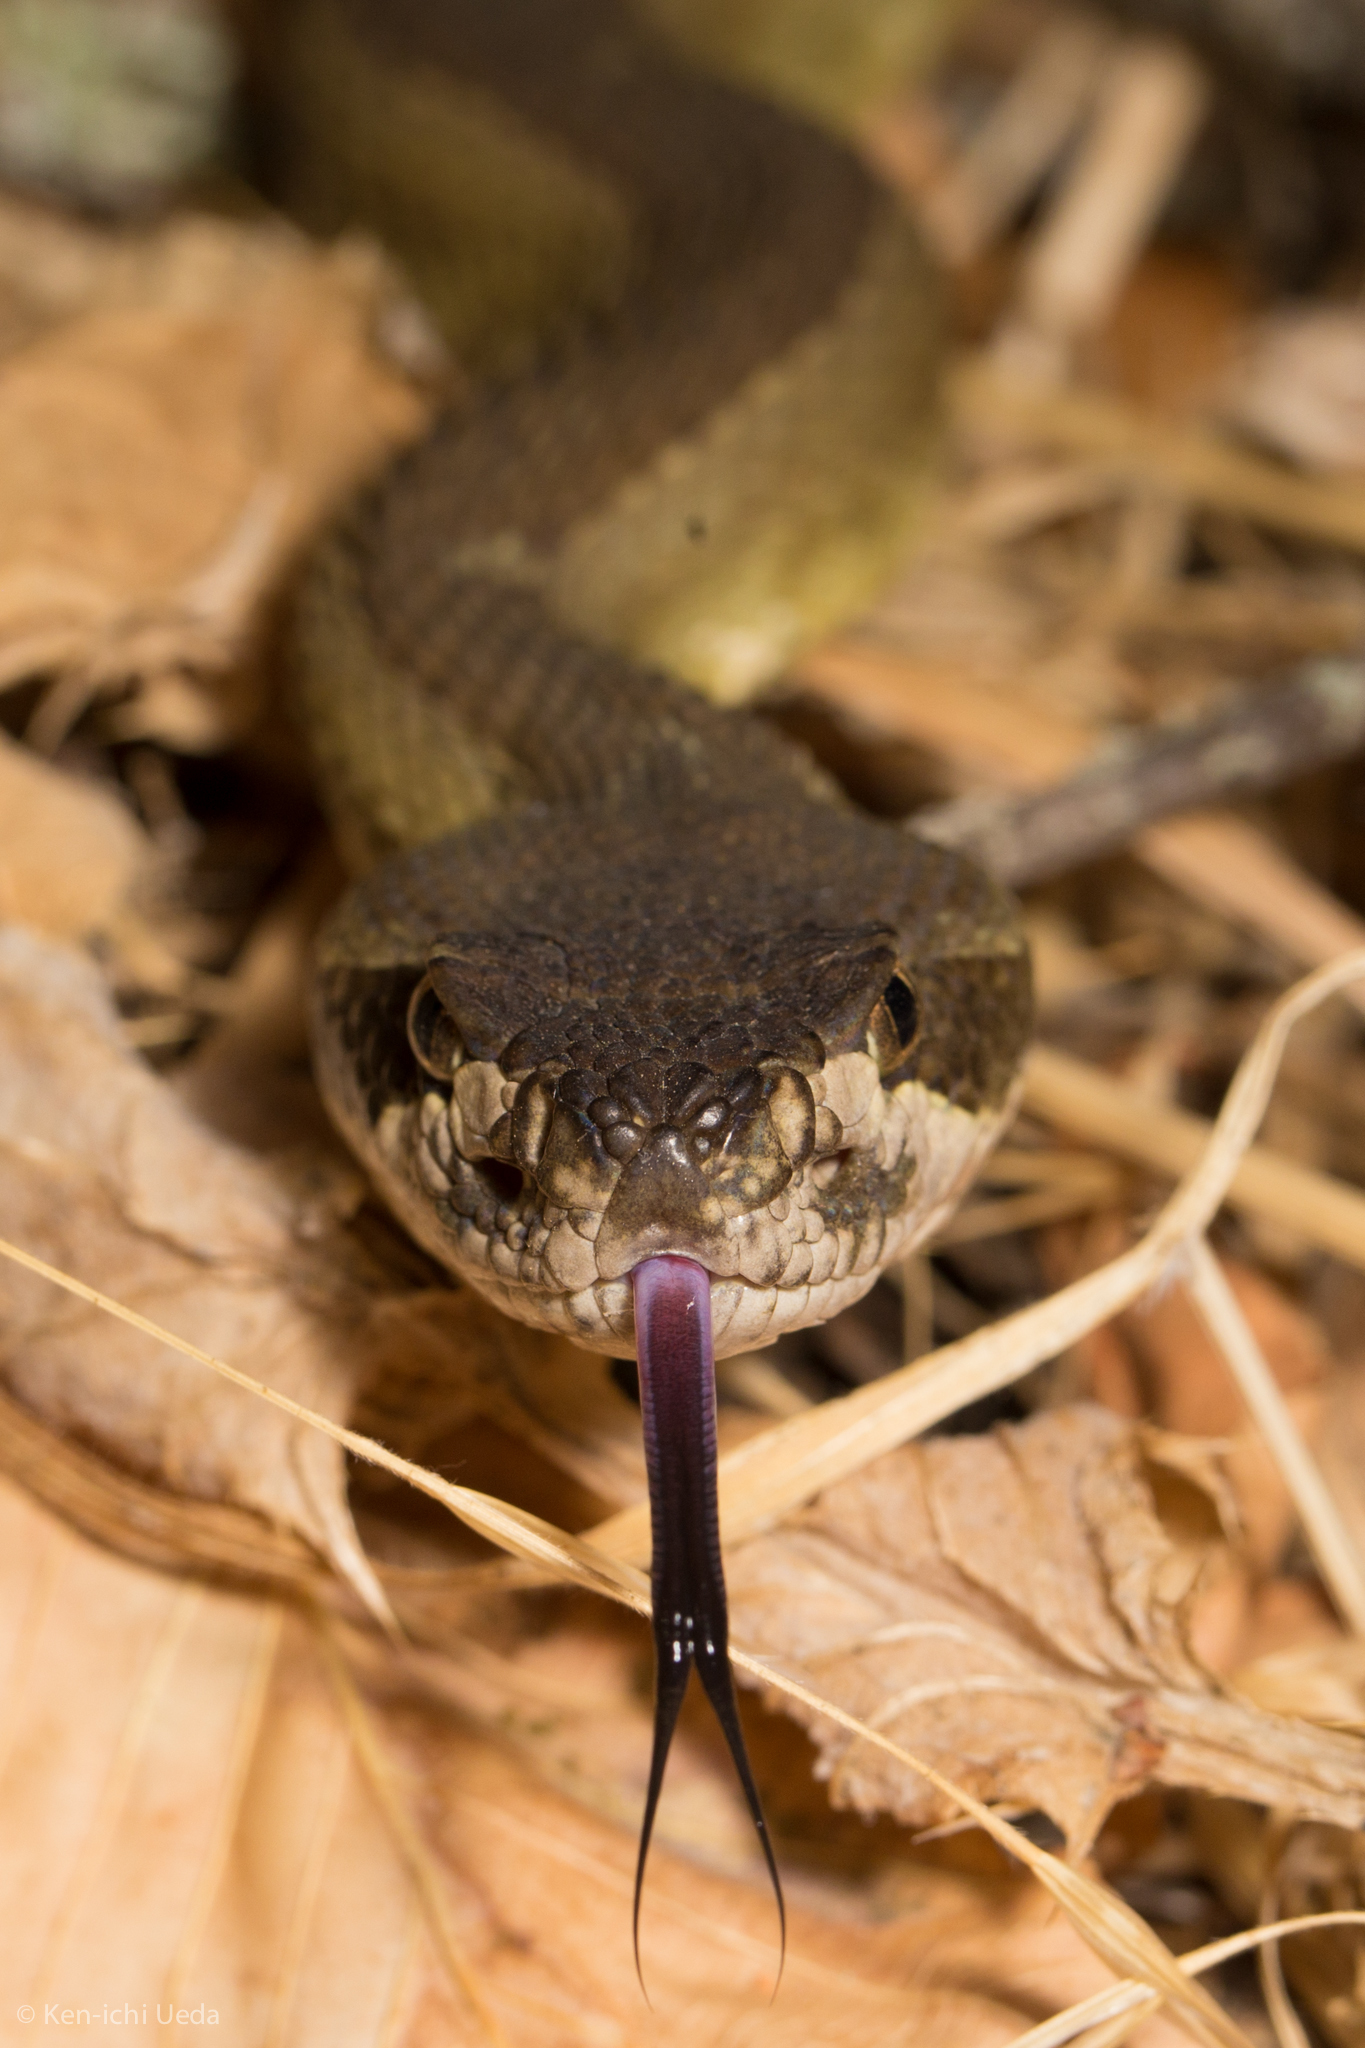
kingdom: Animalia
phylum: Chordata
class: Squamata
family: Viperidae
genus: Crotalus
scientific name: Crotalus oreganus
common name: Abyssus
